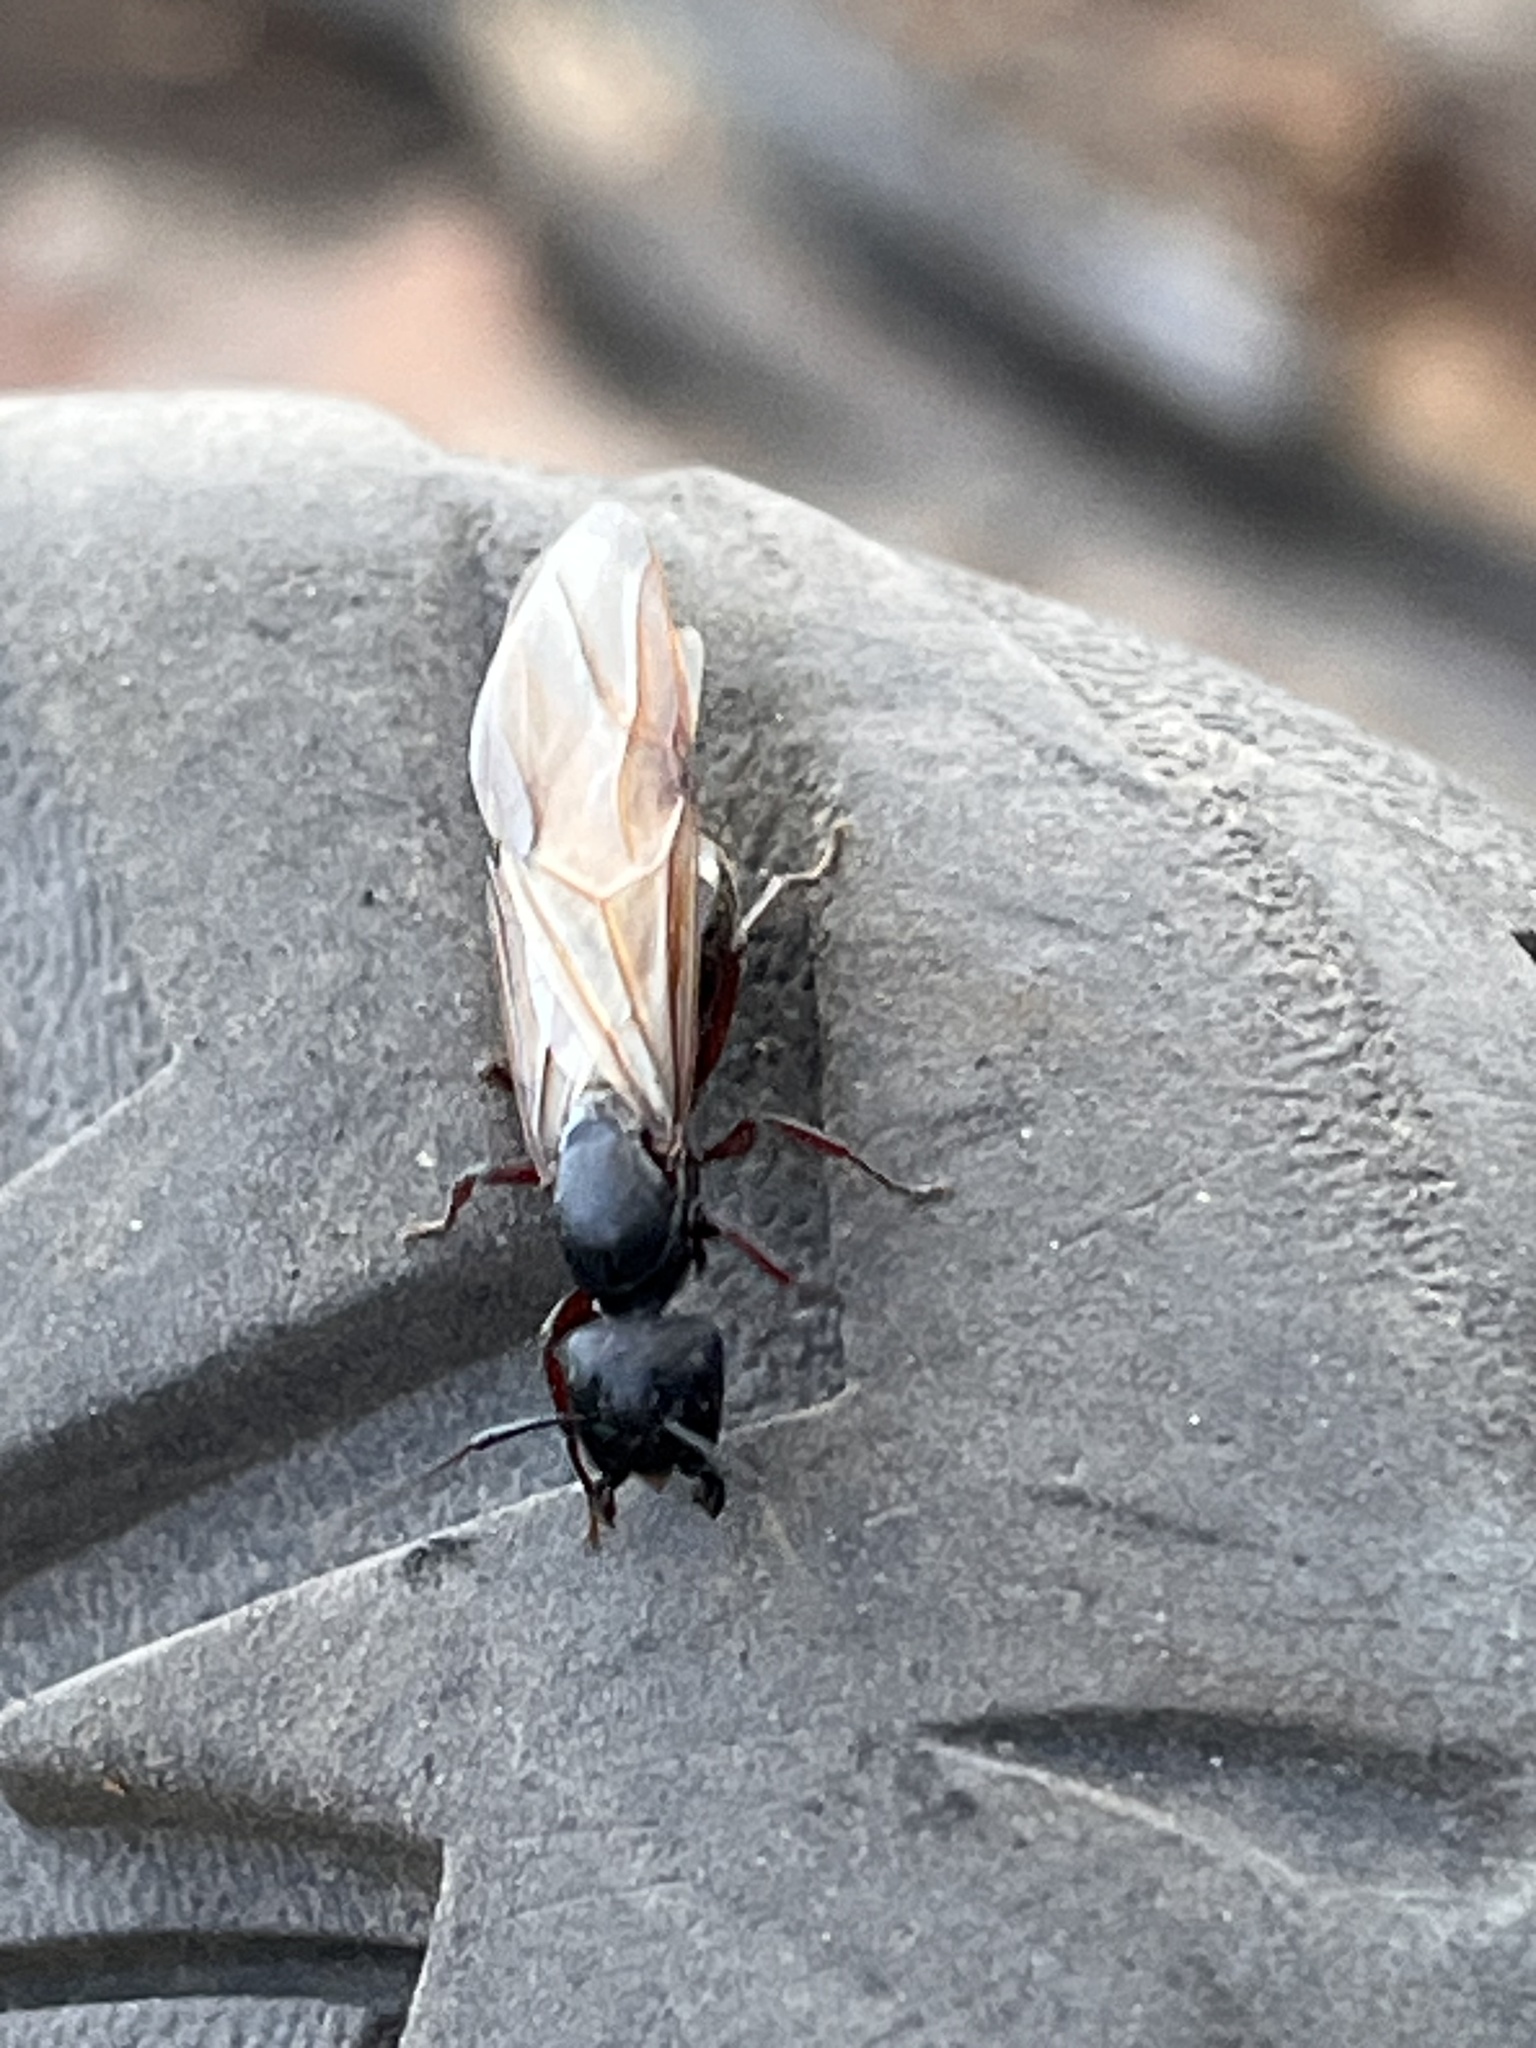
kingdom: Animalia
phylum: Arthropoda
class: Insecta
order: Hymenoptera
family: Formicidae
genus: Camponotus
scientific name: Camponotus modoc
